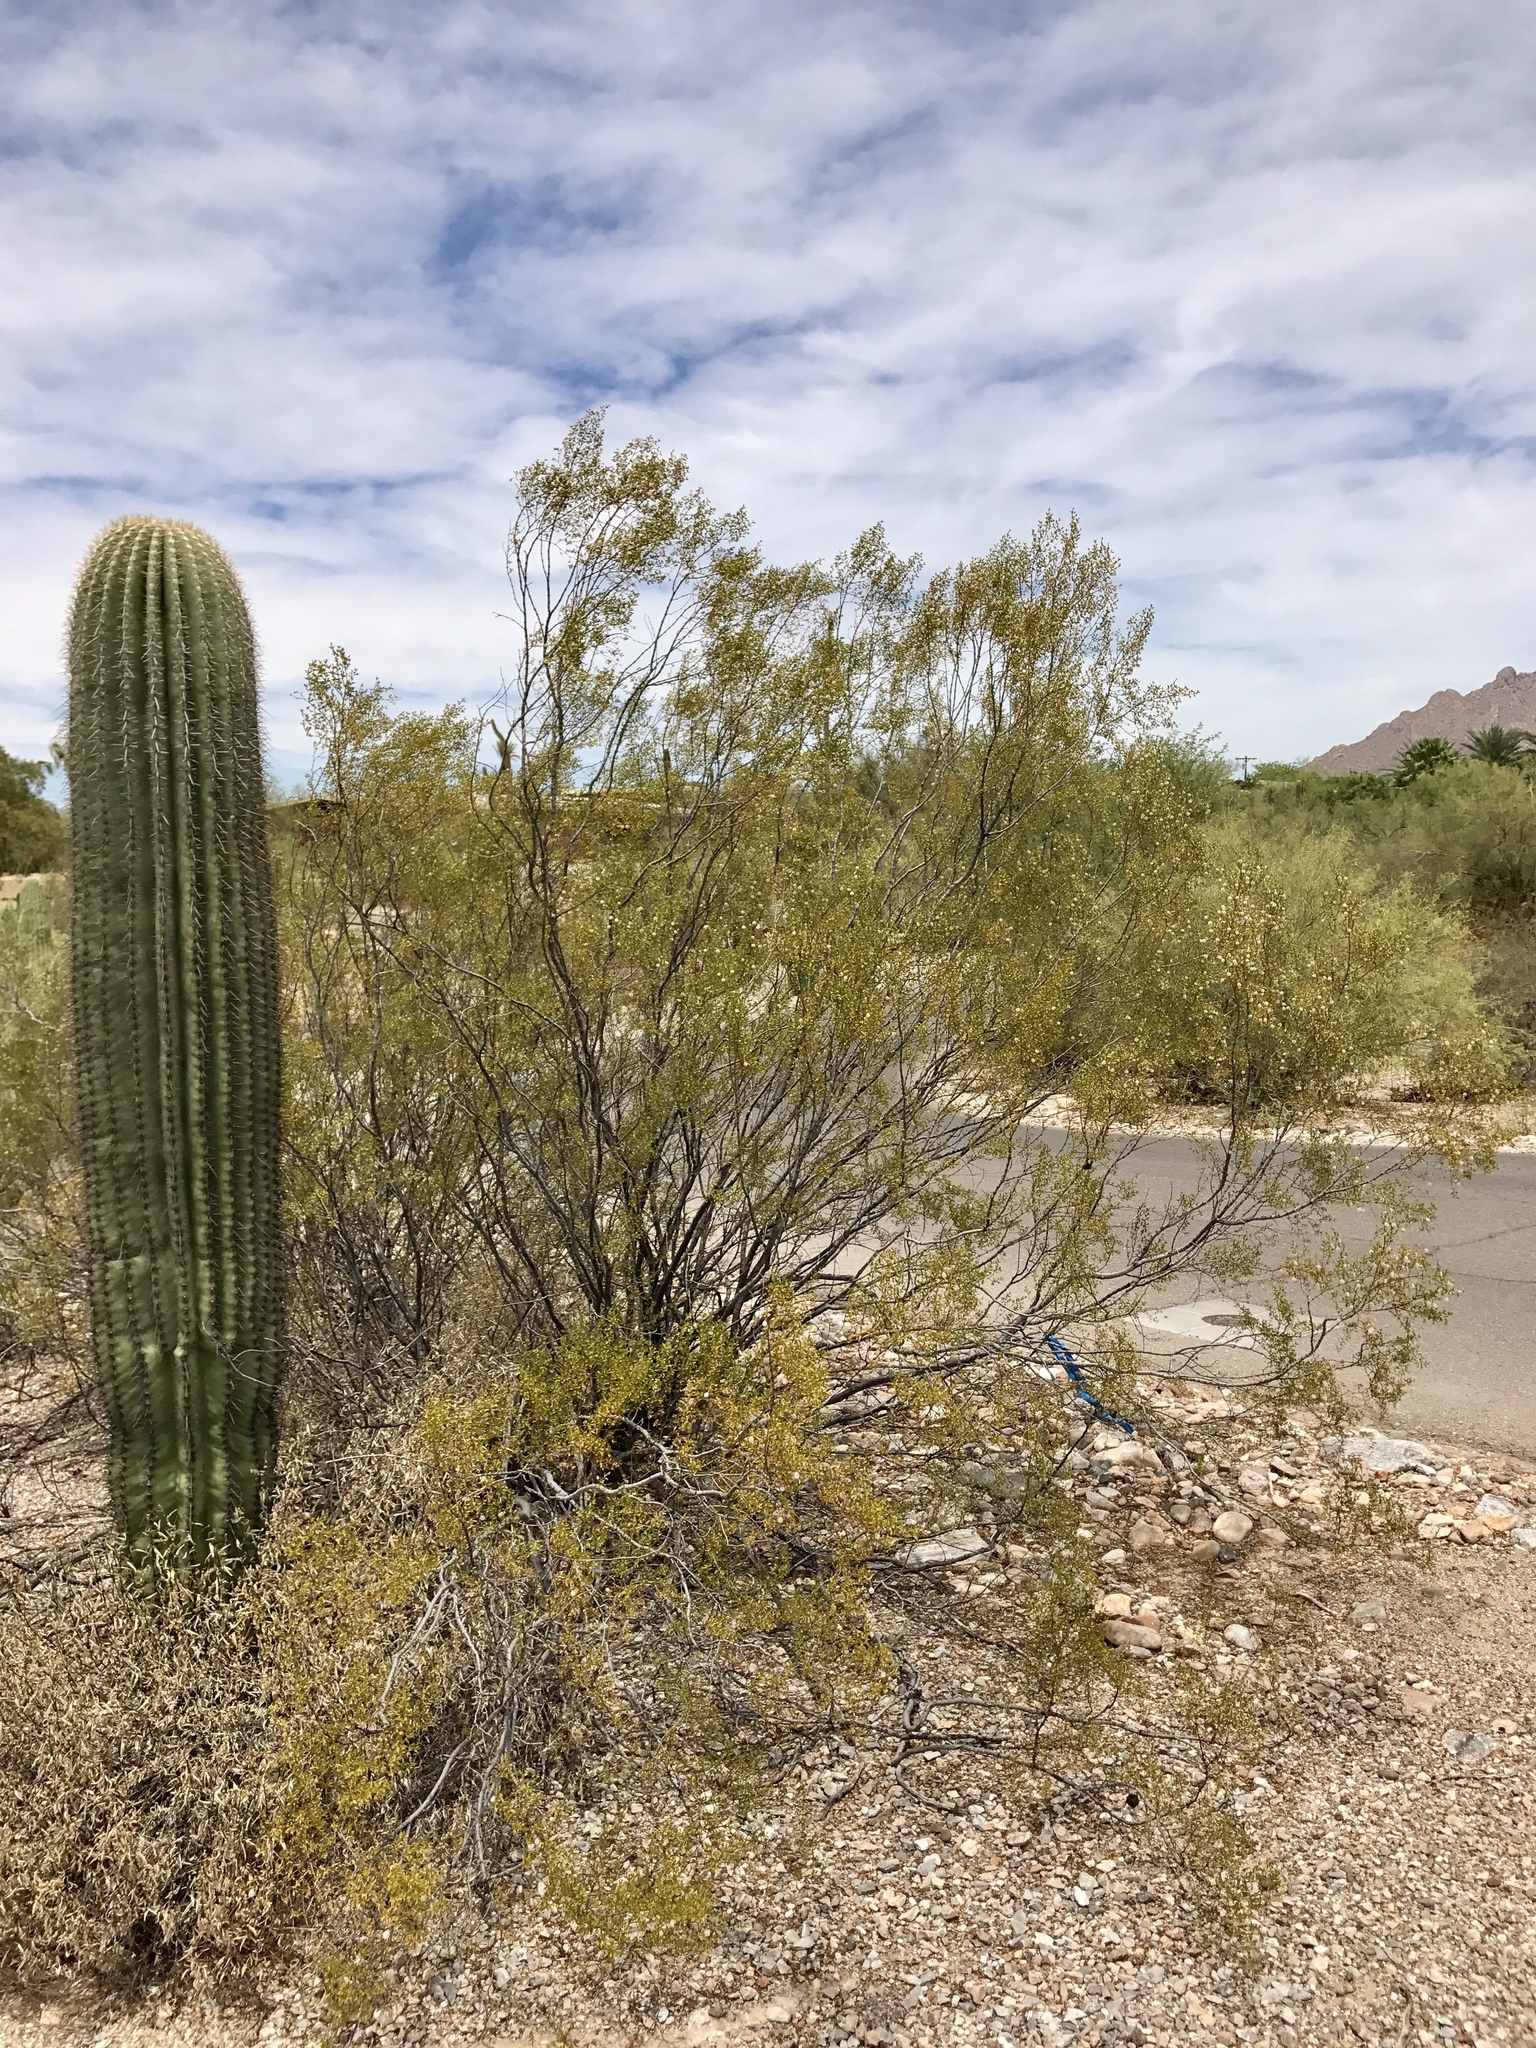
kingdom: Plantae
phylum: Tracheophyta
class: Magnoliopsida
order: Zygophyllales
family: Zygophyllaceae
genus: Larrea
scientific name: Larrea tridentata
